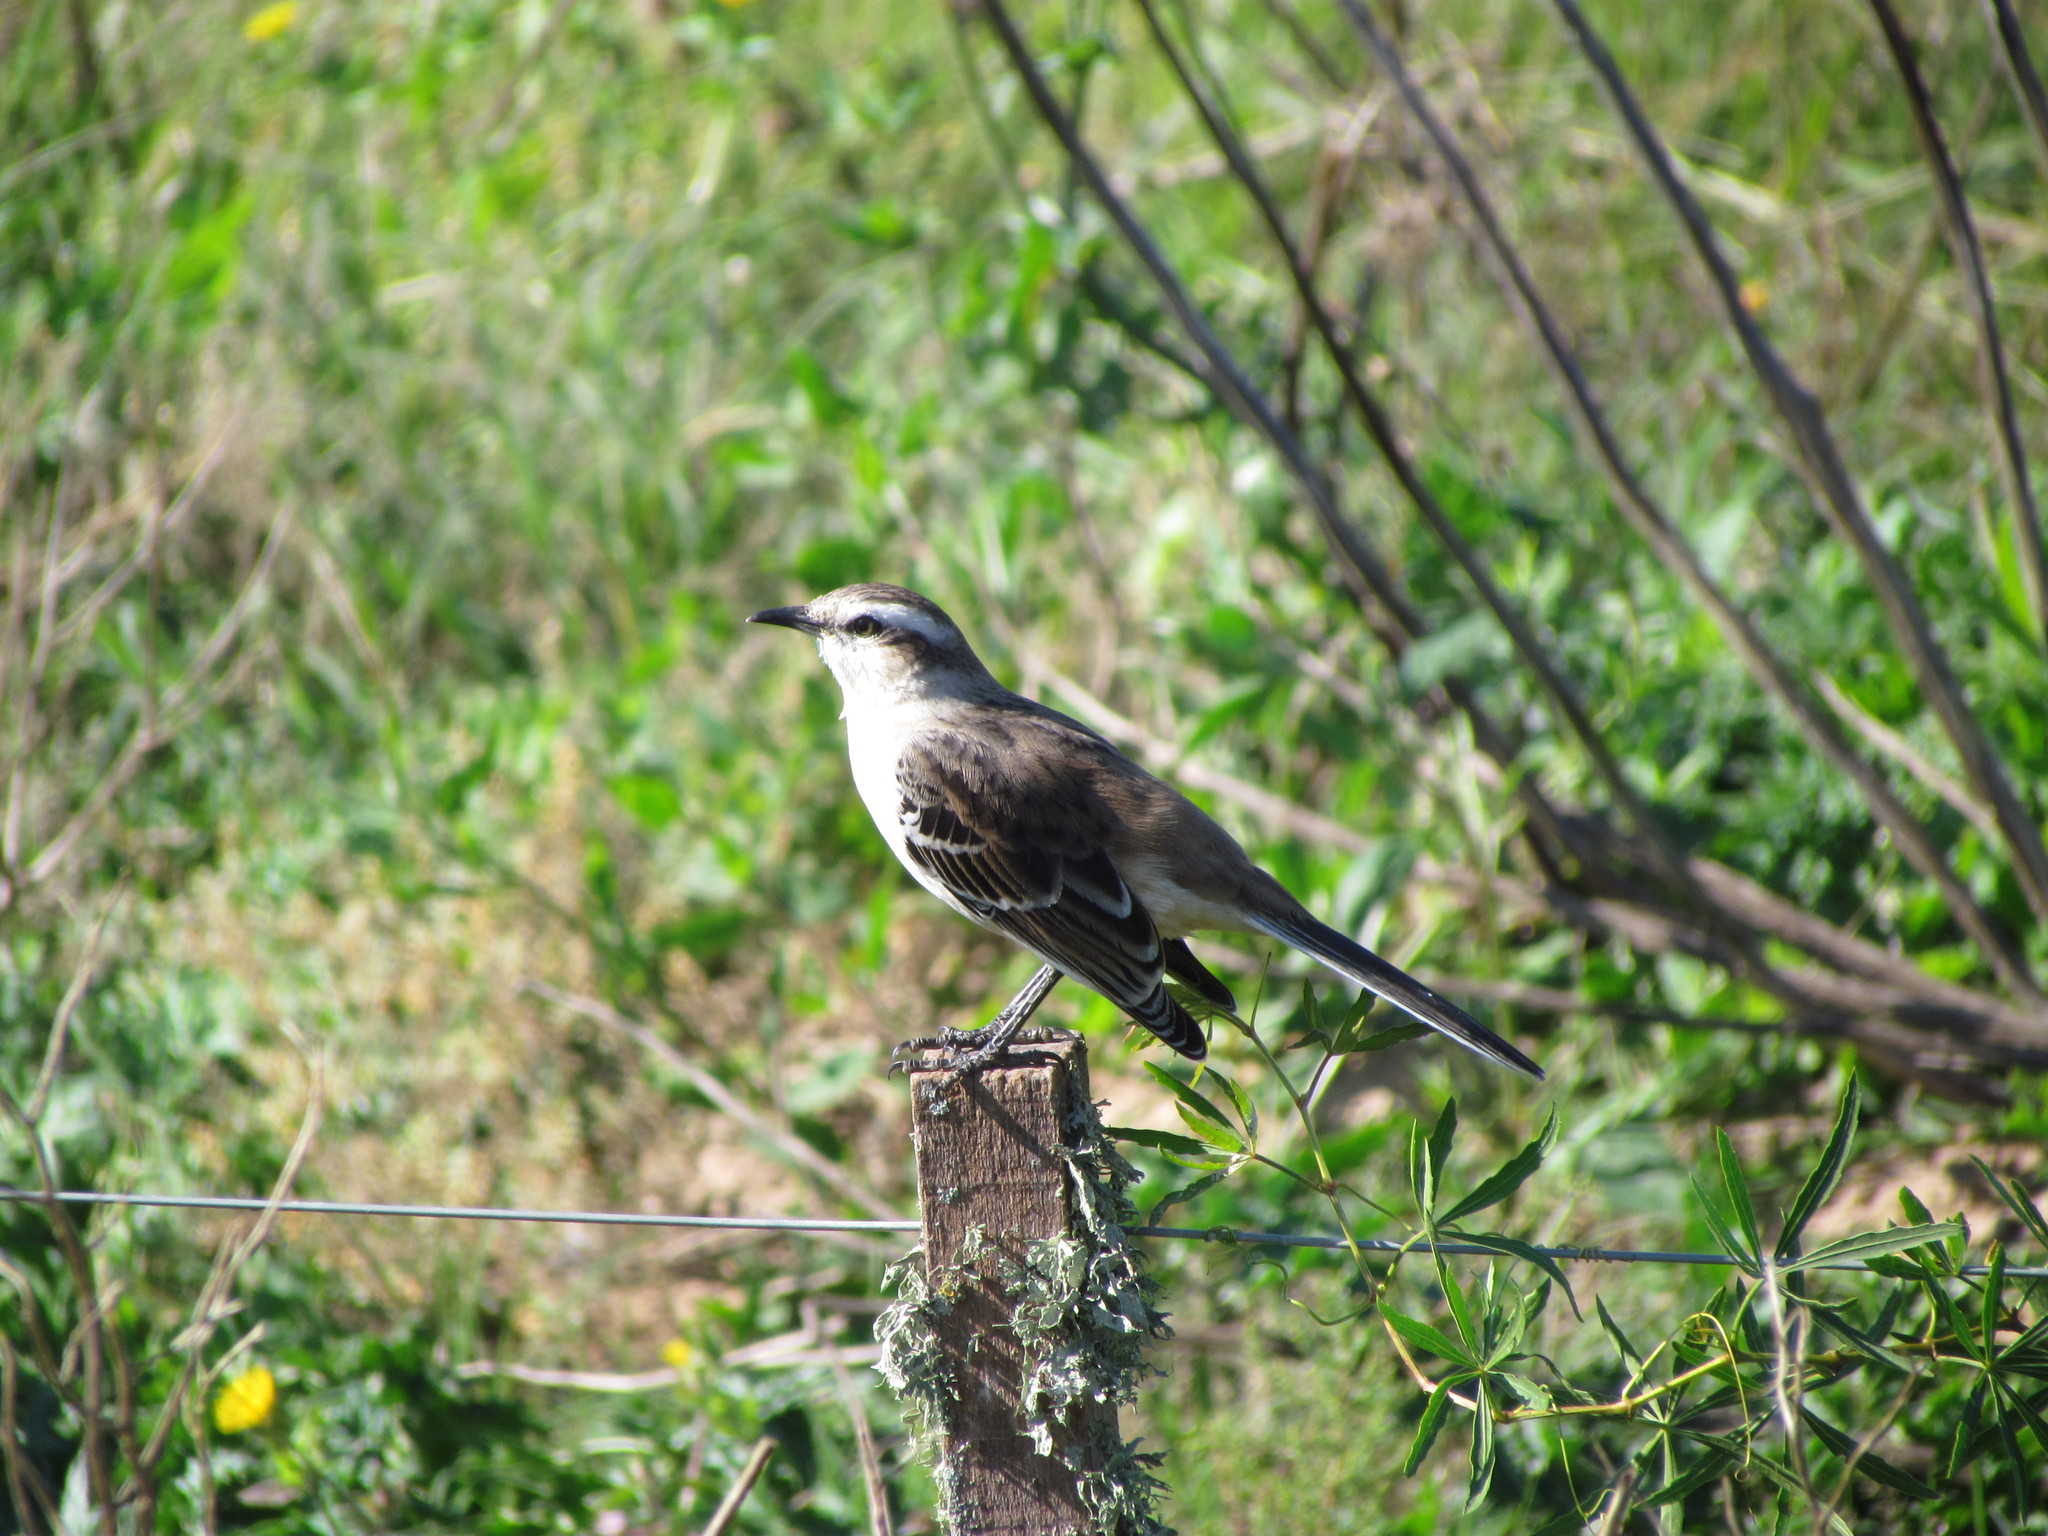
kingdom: Animalia
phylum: Chordata
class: Aves
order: Passeriformes
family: Mimidae
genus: Mimus
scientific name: Mimus saturninus
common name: Chalk-browed mockingbird
